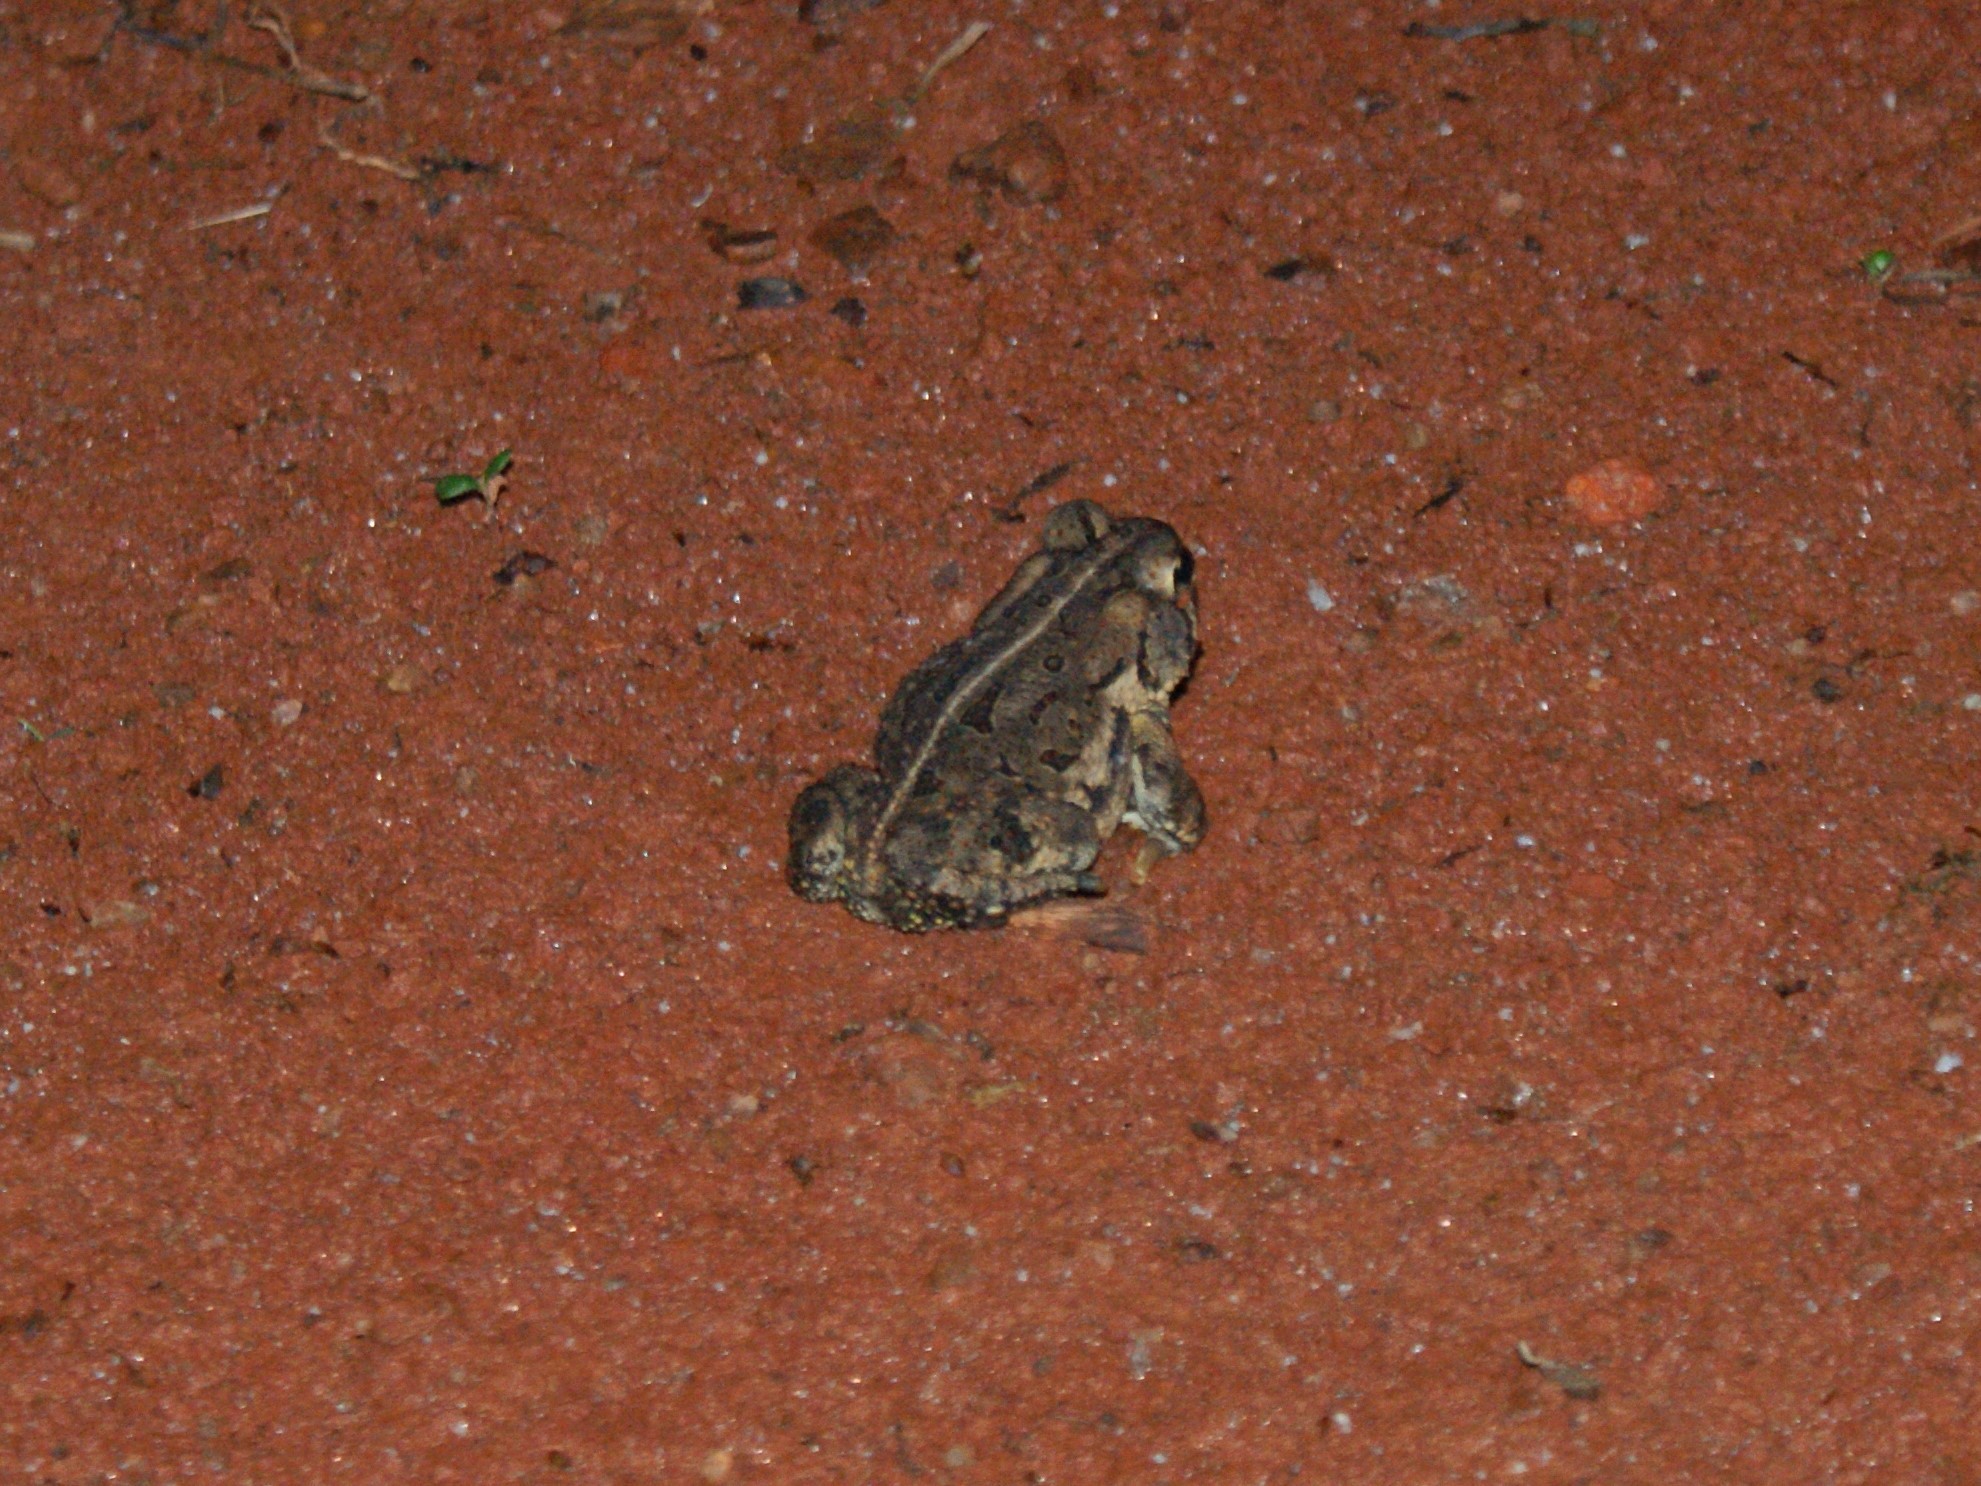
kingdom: Animalia
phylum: Chordata
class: Amphibia
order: Anura
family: Bufonidae
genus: Anaxyrus
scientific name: Anaxyrus fowleri
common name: Fowler's toad
